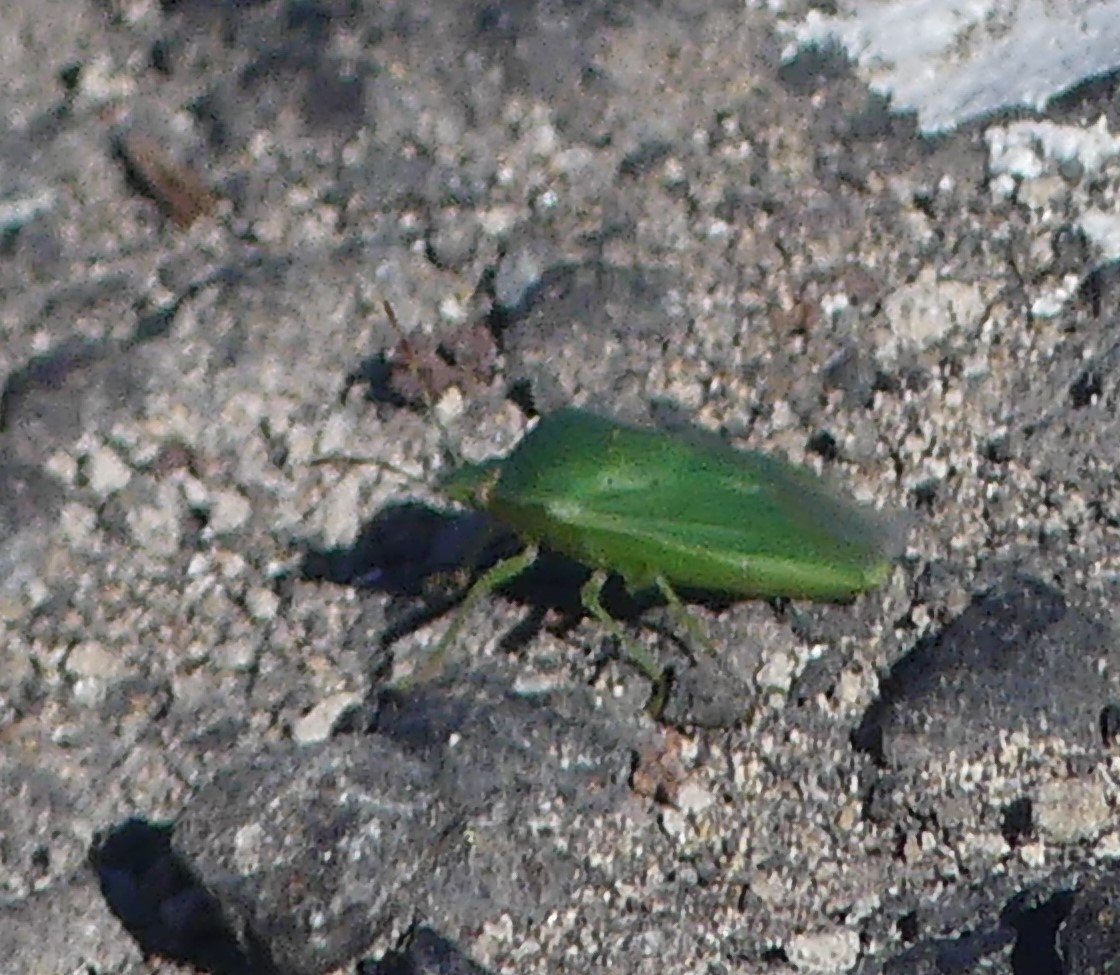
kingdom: Animalia
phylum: Arthropoda
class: Insecta
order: Hemiptera
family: Pentatomidae
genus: Nezara
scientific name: Nezara viridula
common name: Southern green stink bug
